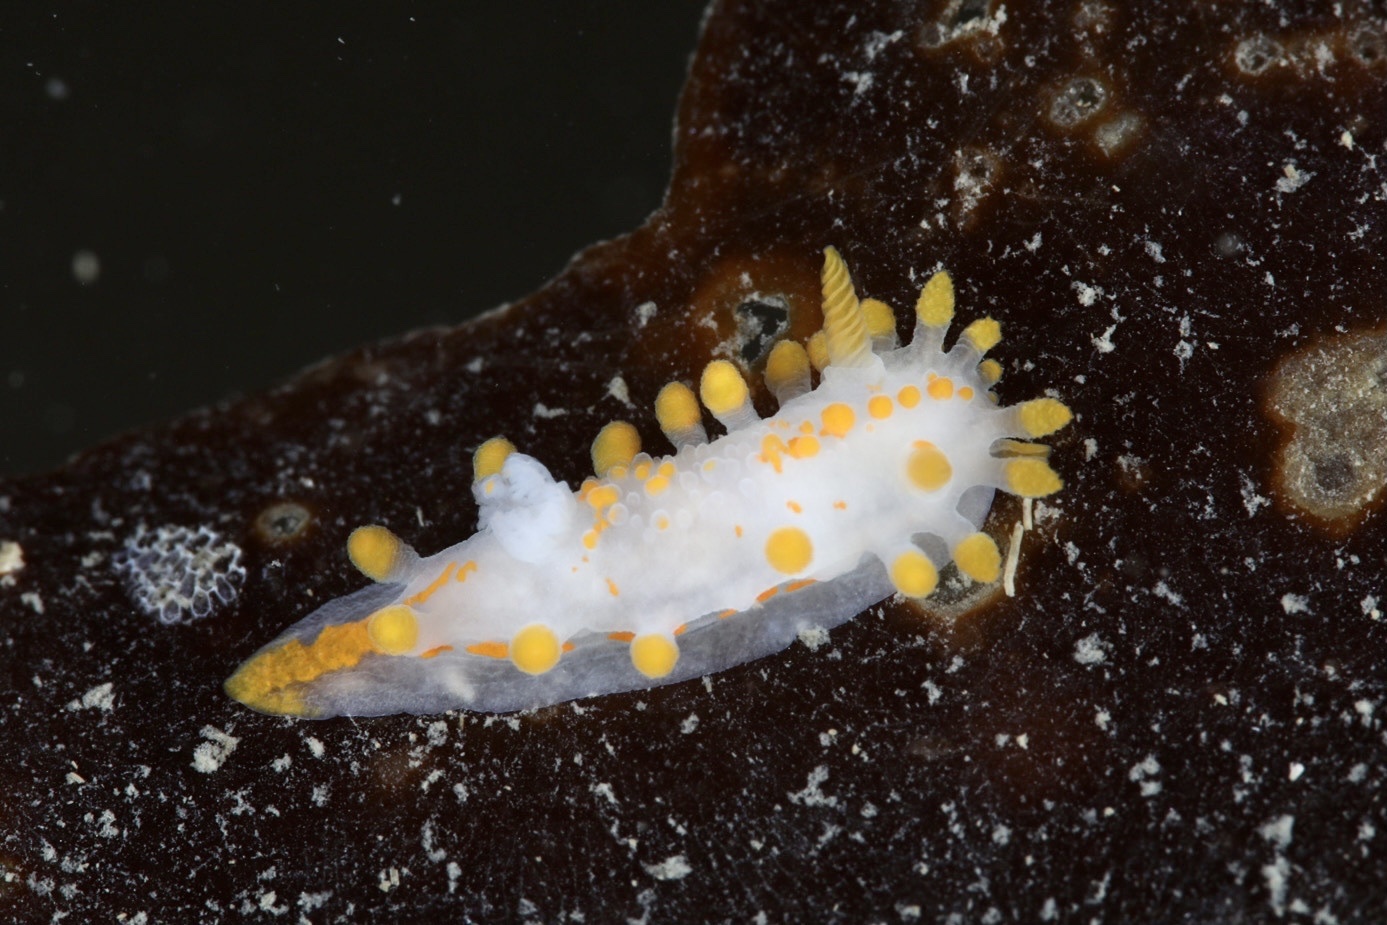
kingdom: Animalia
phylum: Mollusca
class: Gastropoda
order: Nudibranchia
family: Polyceridae
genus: Limacia
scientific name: Limacia clavigera
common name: Orange-clubbed sea slug
